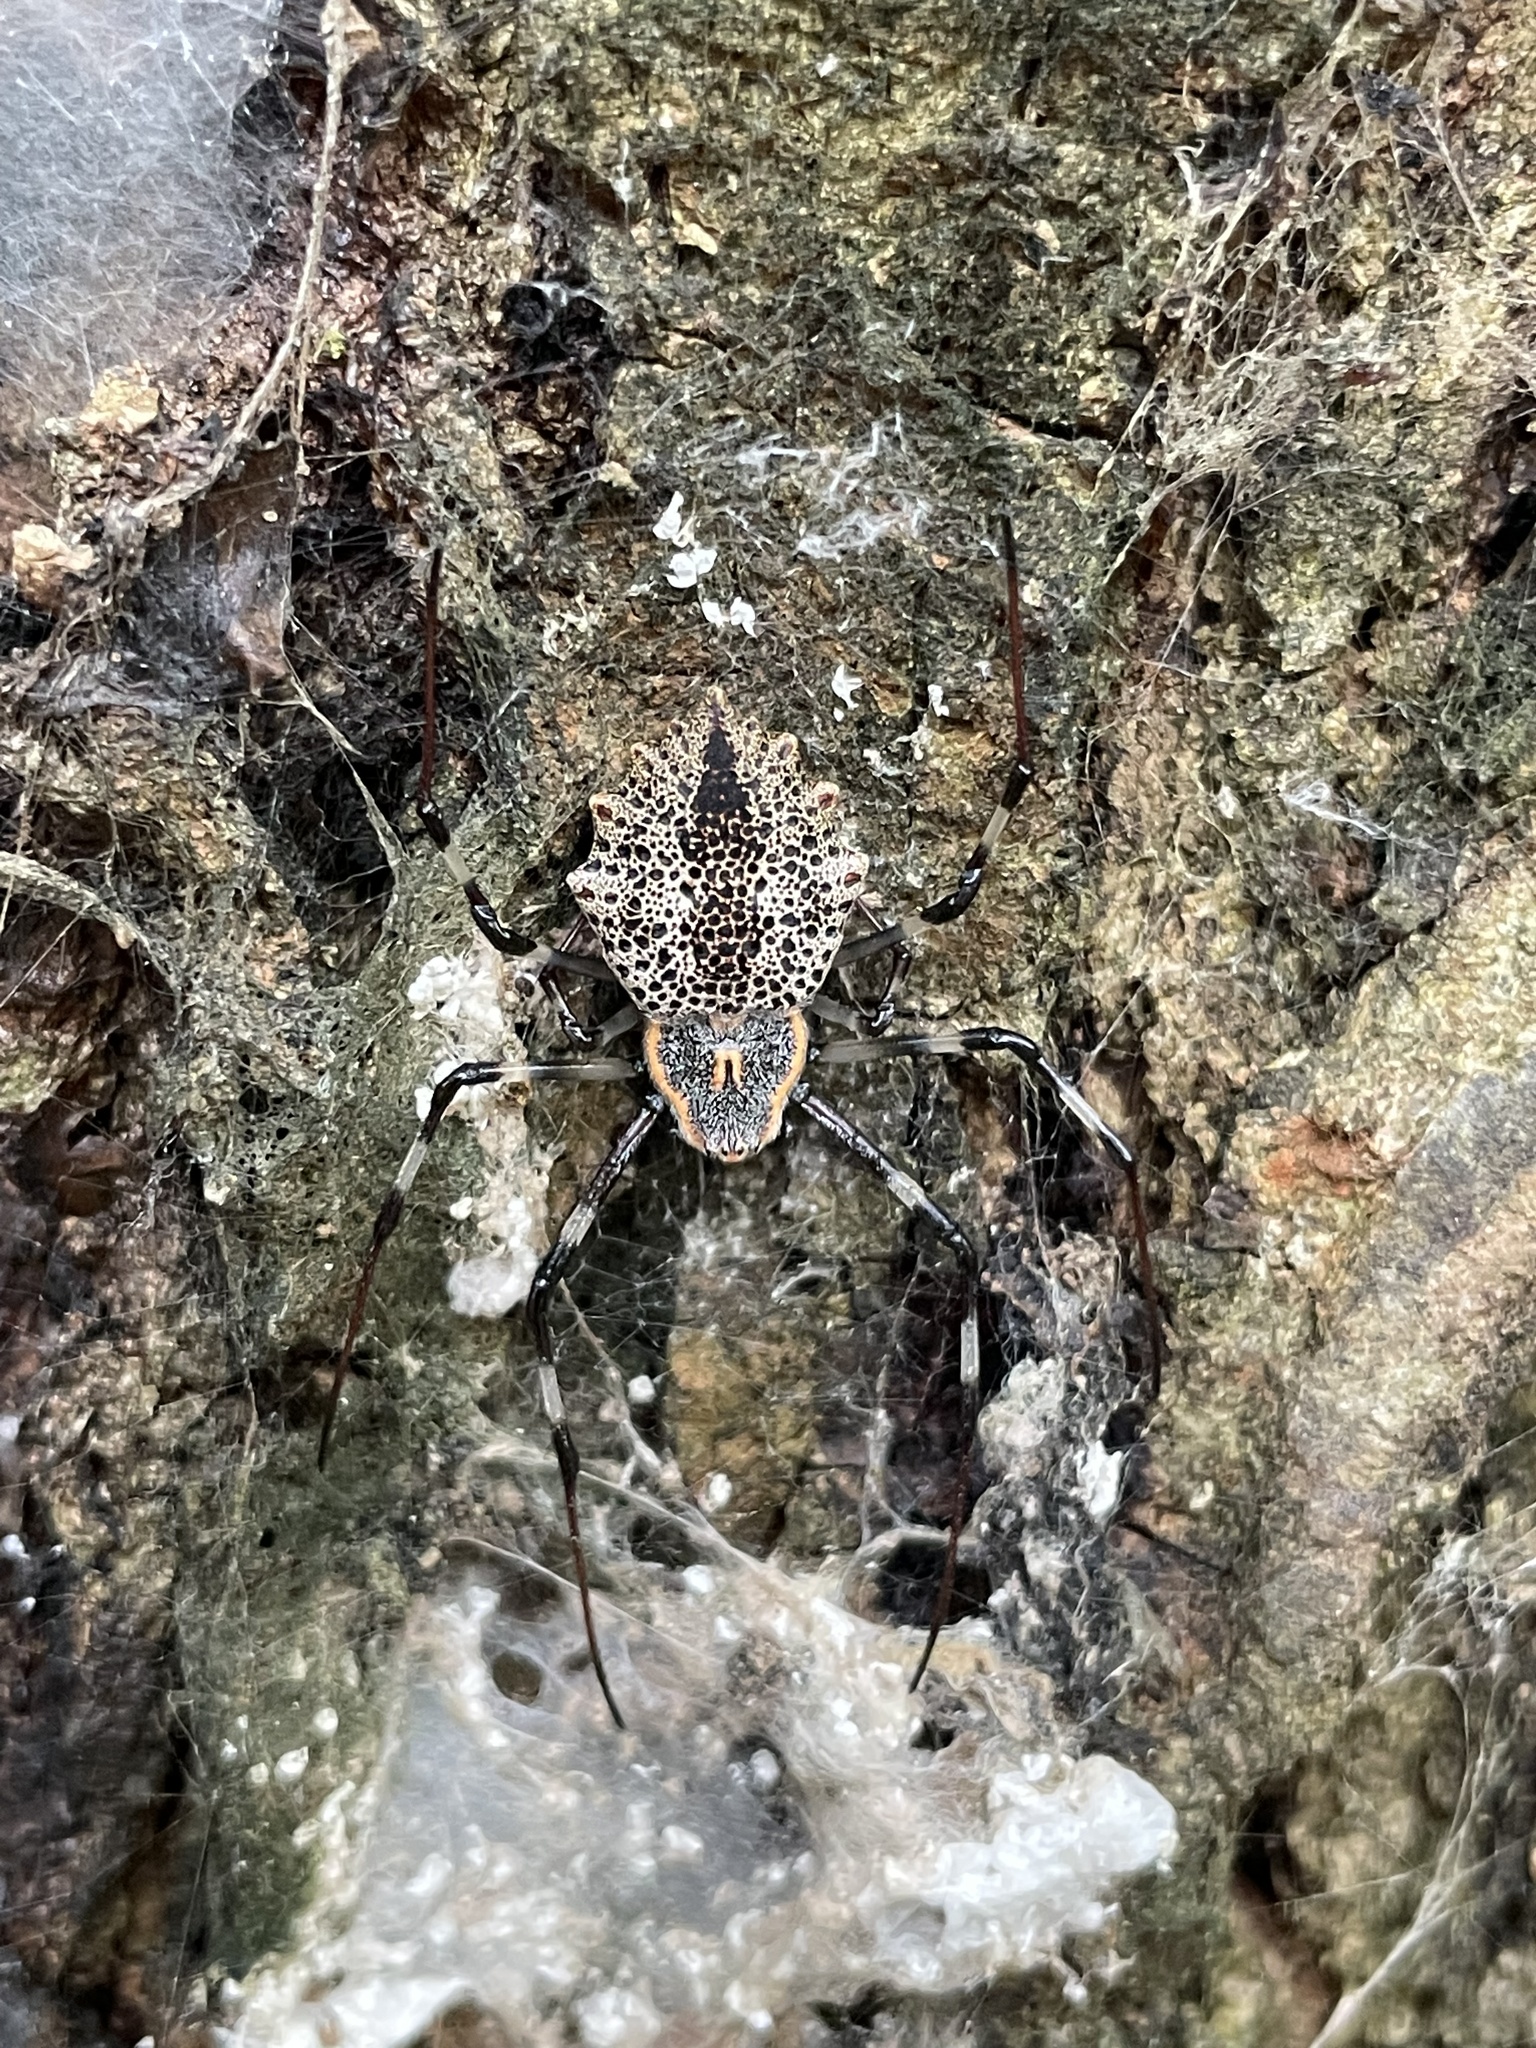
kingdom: Animalia
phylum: Arthropoda
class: Arachnida
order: Araneae
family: Araneidae
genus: Herennia
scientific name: Herennia multipuncta
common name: Spotted coin spider
